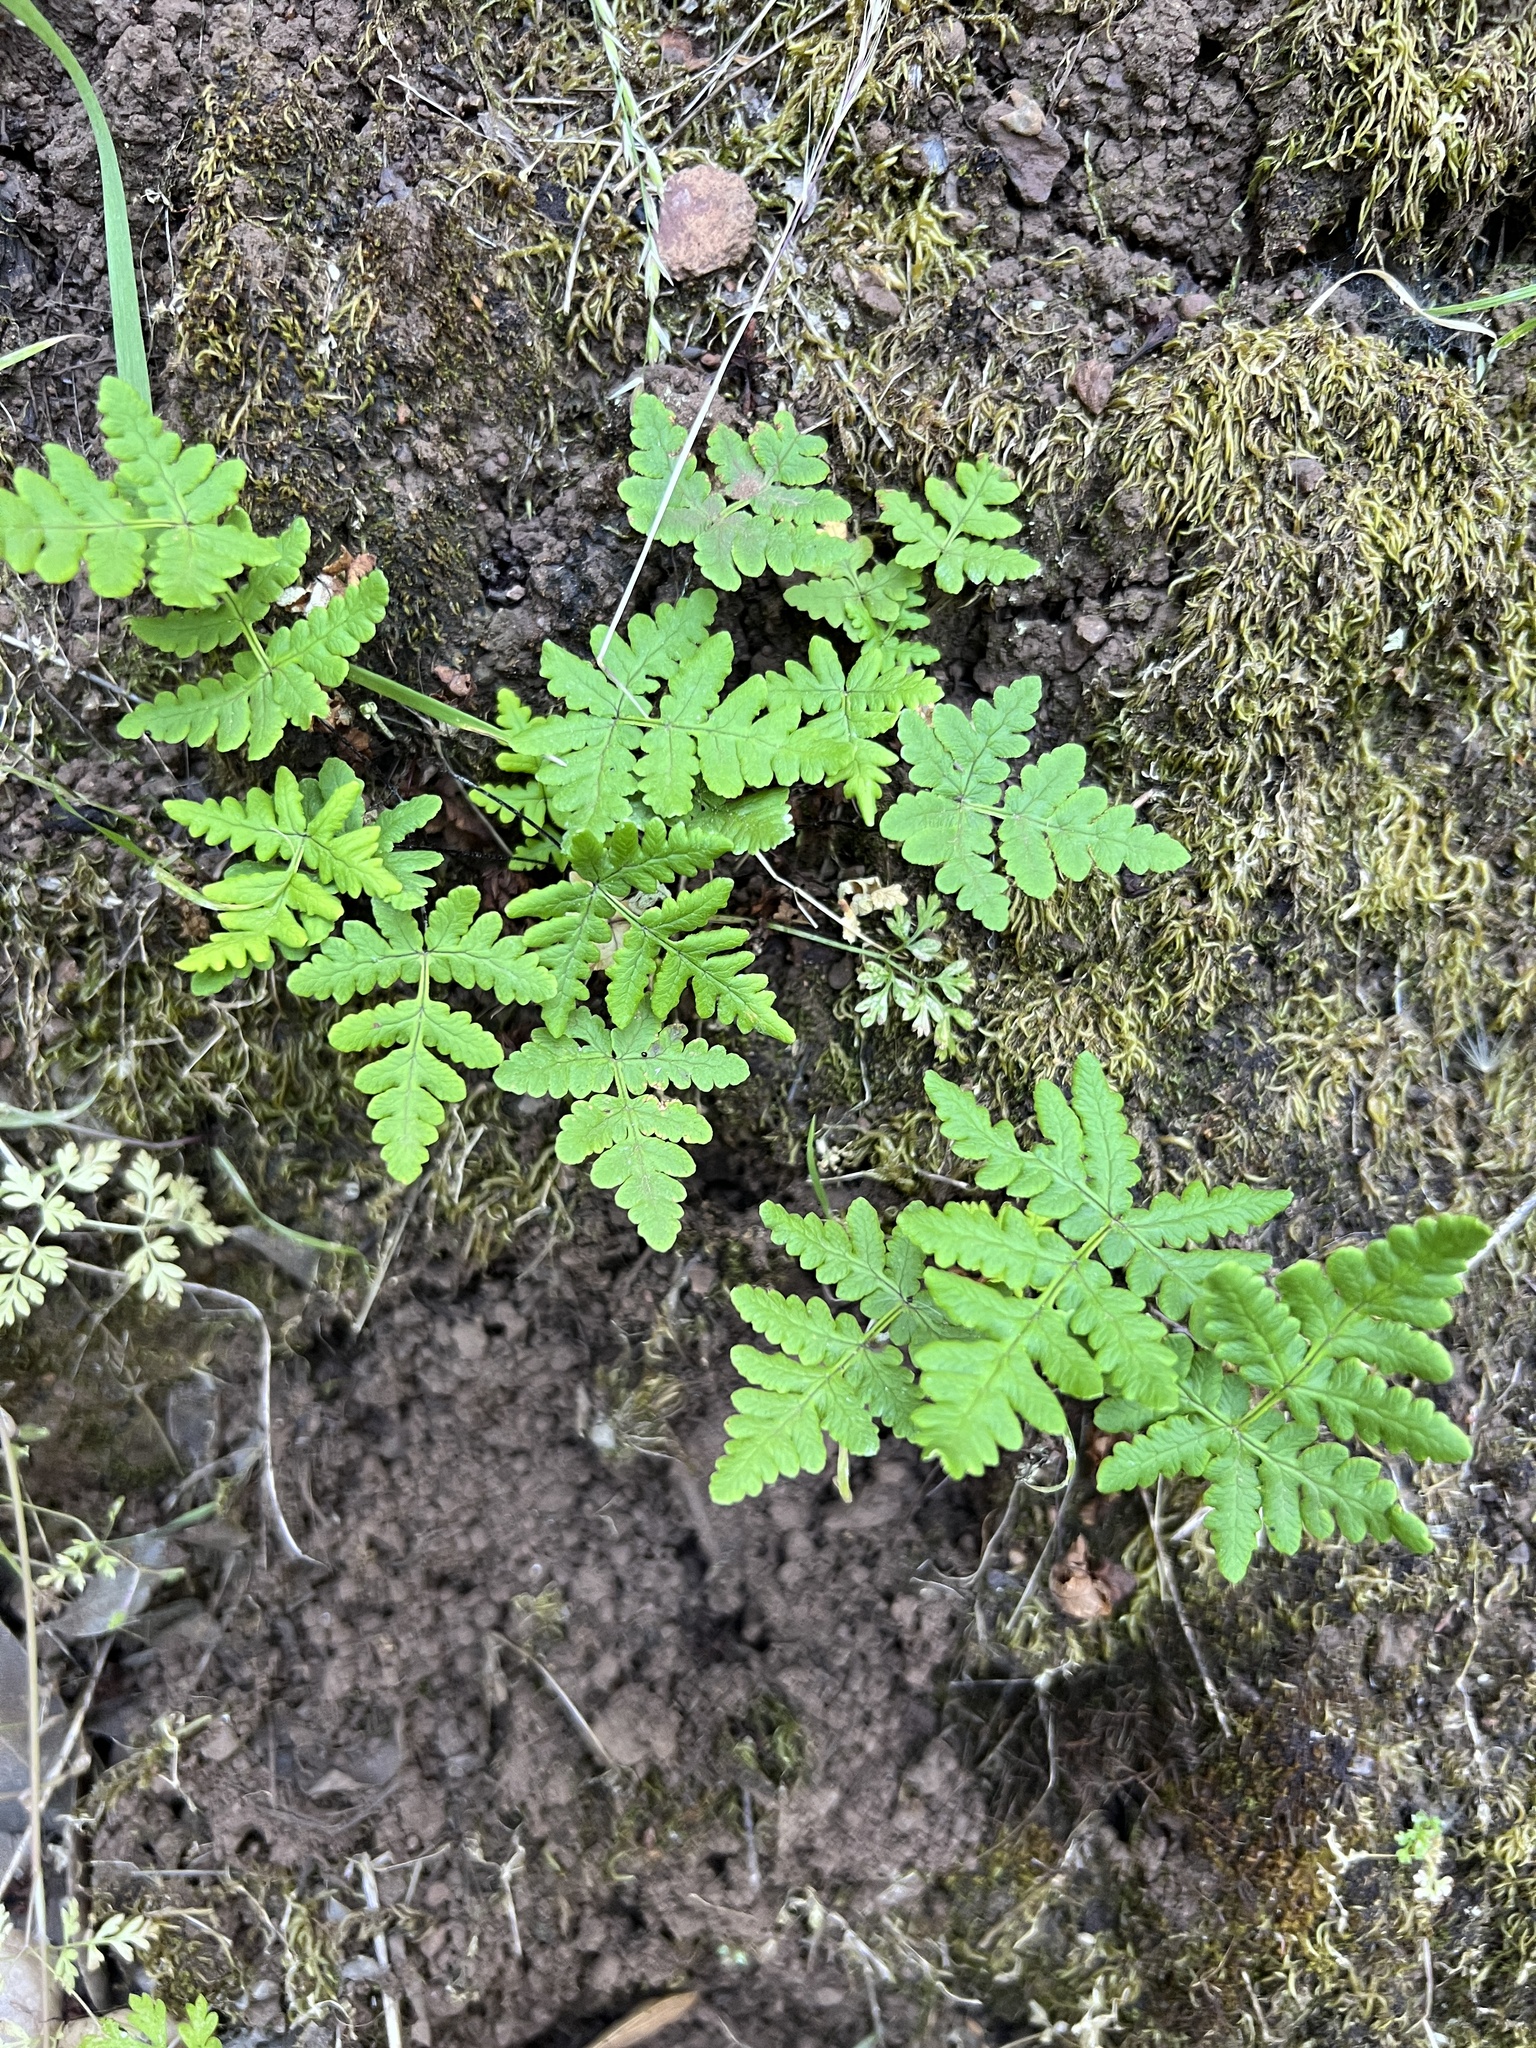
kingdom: Plantae
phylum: Tracheophyta
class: Polypodiopsida
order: Polypodiales
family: Pteridaceae
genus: Pentagramma
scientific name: Pentagramma triangularis
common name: Gold fern
